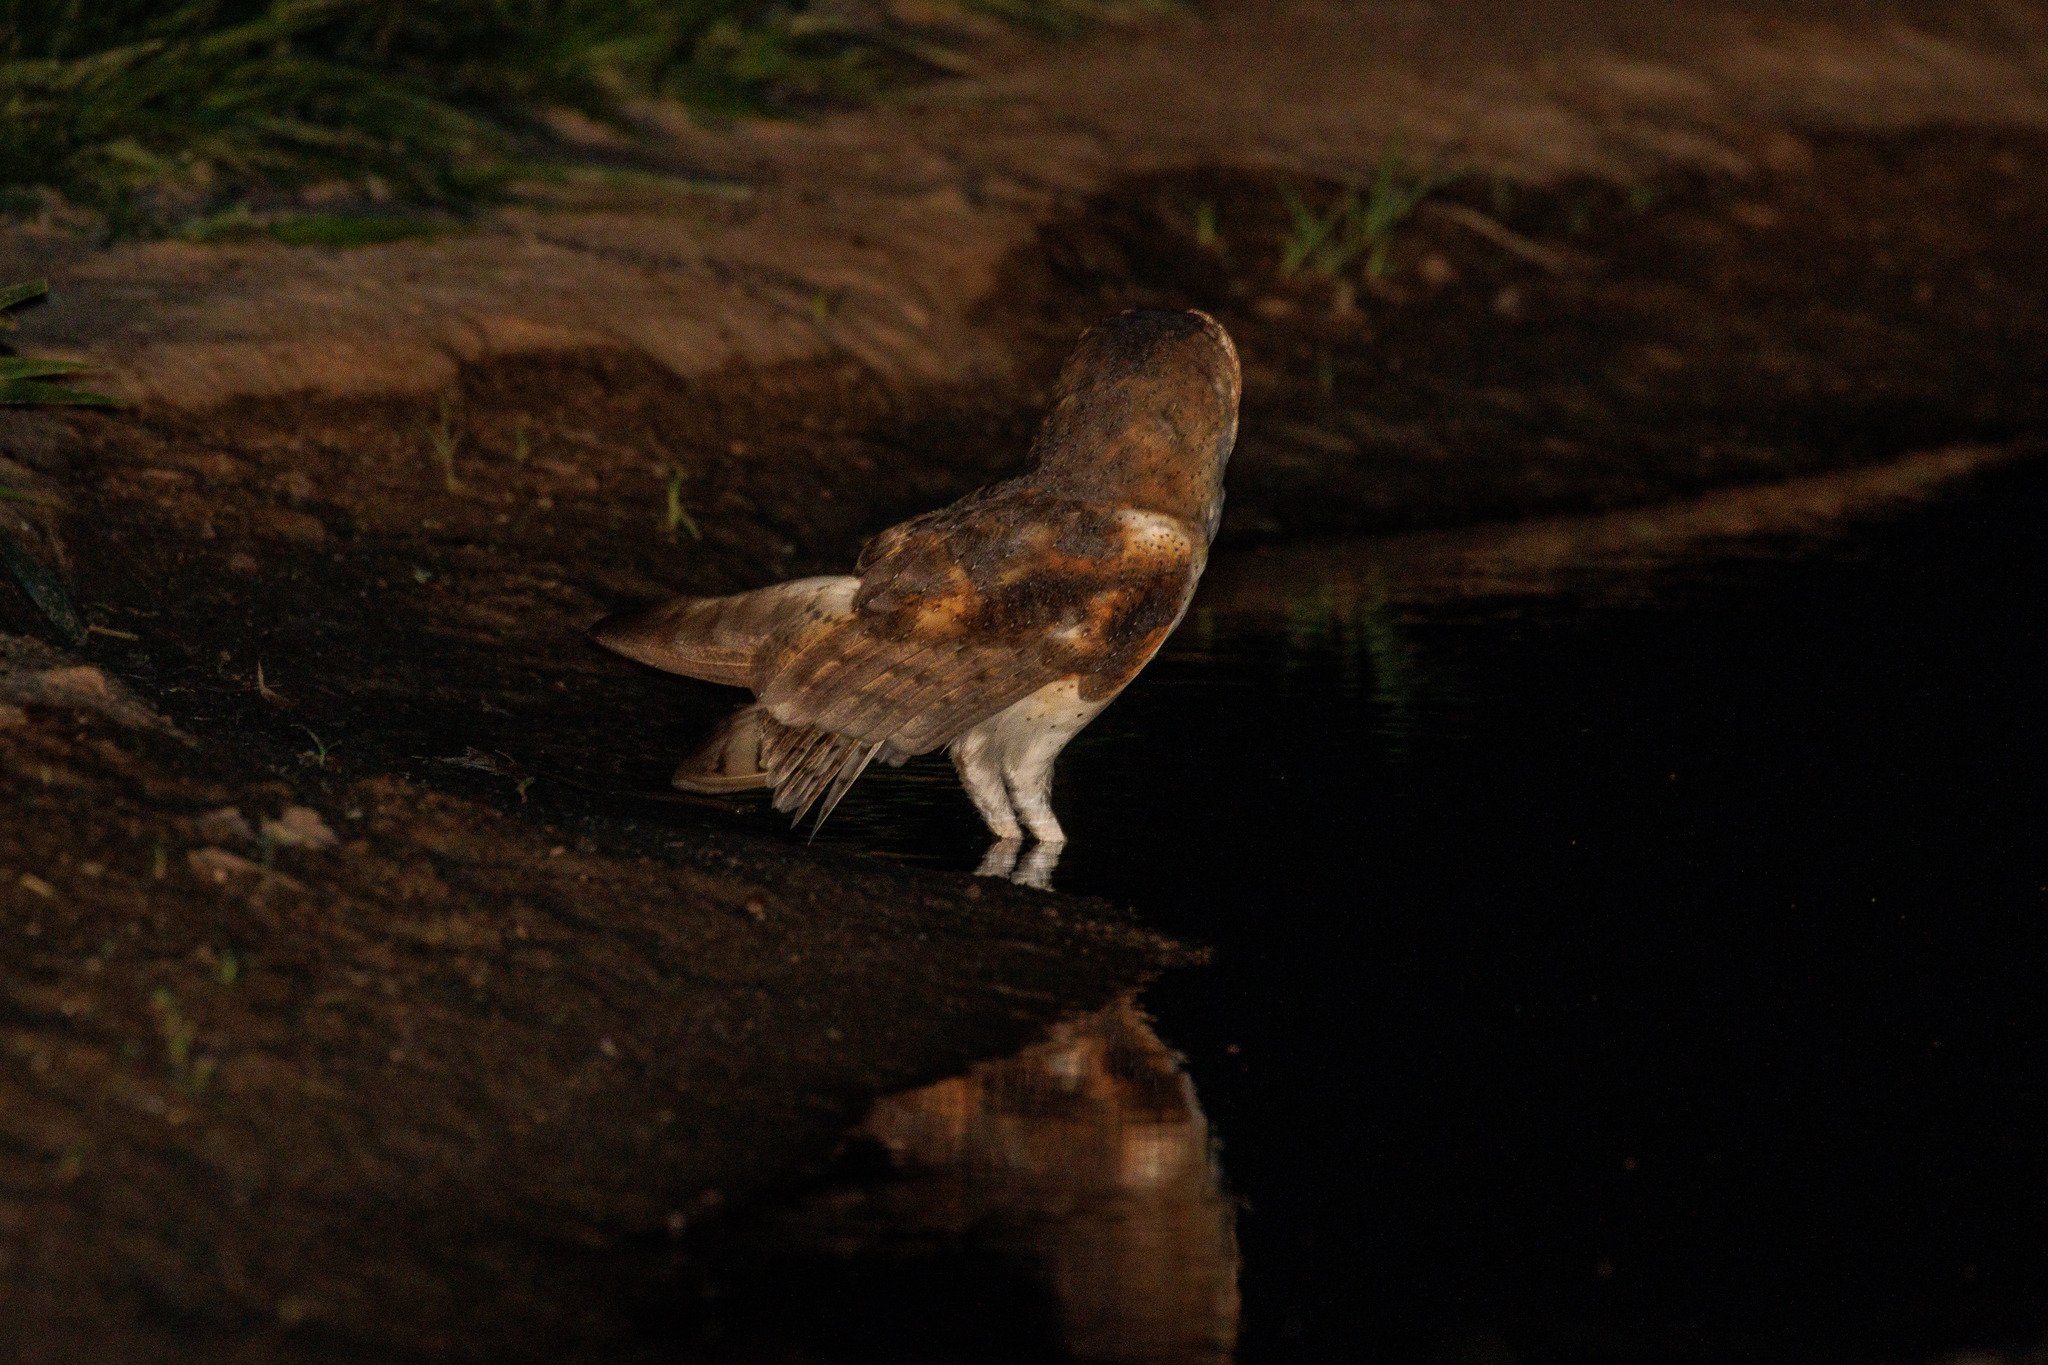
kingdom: Animalia
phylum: Chordata
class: Aves
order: Strigiformes
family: Tytonidae
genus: Tyto
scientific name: Tyto furcata
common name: American barn owl
